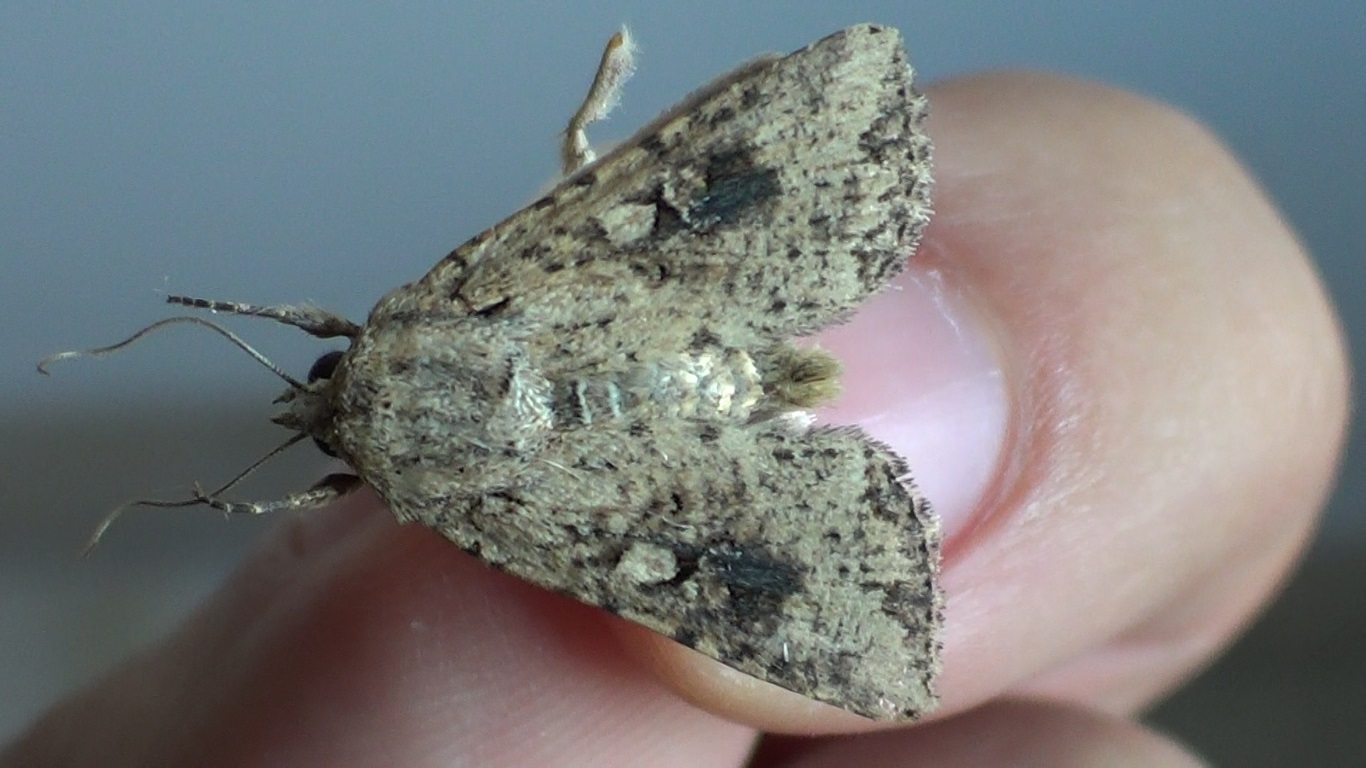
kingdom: Animalia
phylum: Arthropoda
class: Insecta
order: Lepidoptera
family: Noctuidae
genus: Mythimna
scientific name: Mythimna languida
